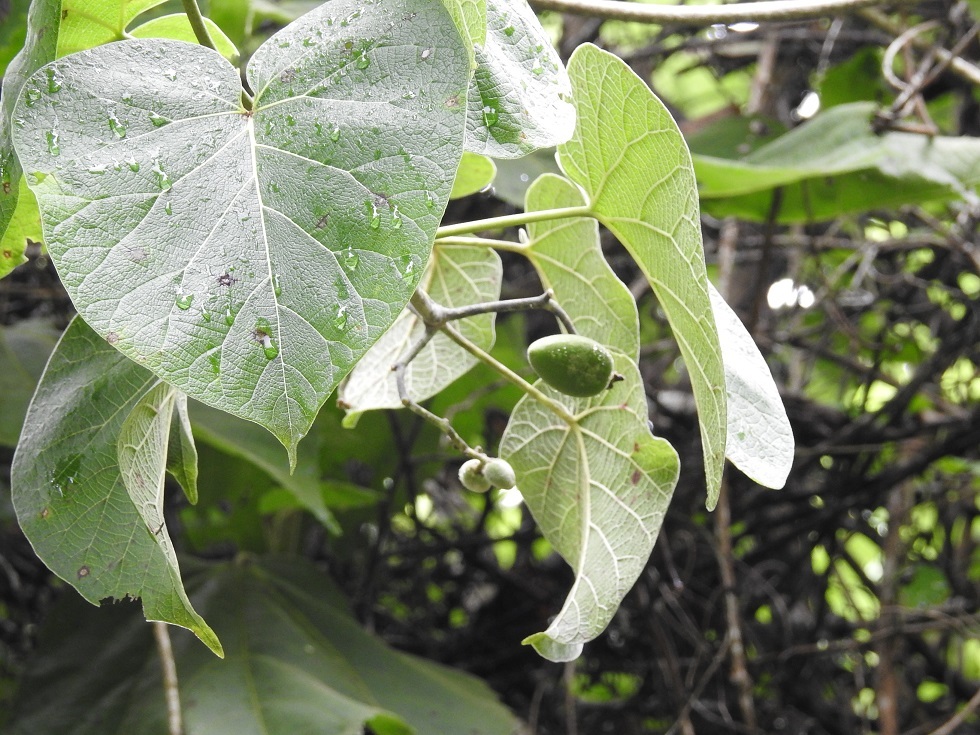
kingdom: Plantae
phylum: Tracheophyta
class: Magnoliopsida
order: Gentianales
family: Apocynaceae
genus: Ruehssia
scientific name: Ruehssia mexicana
